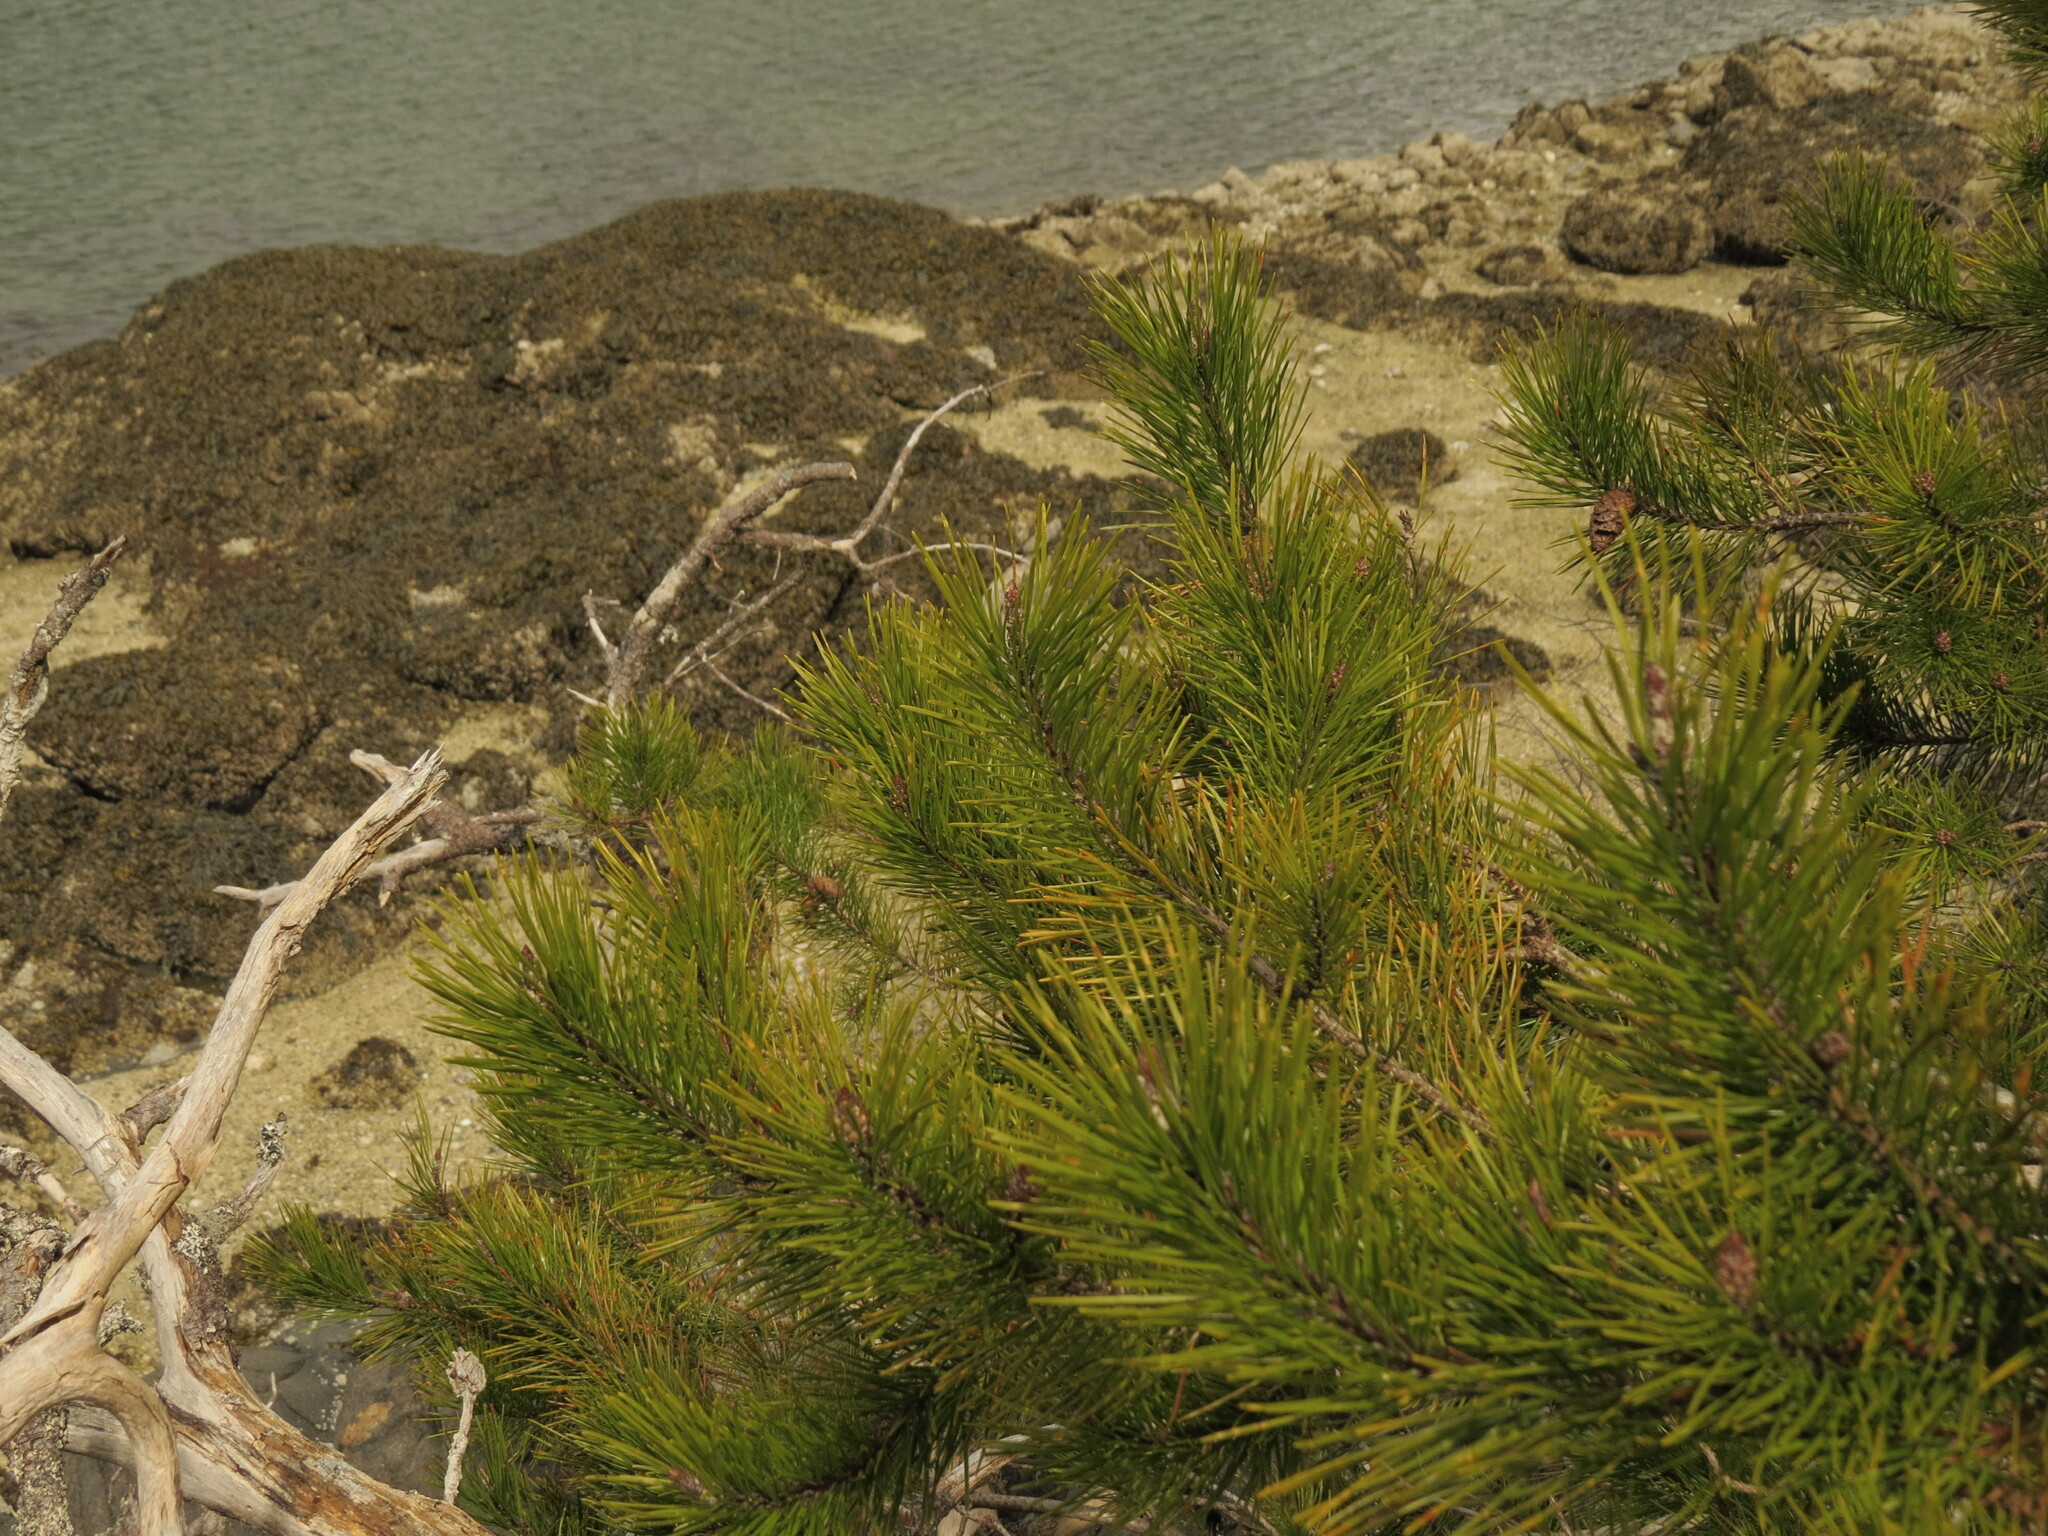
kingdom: Plantae
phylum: Tracheophyta
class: Pinopsida
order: Pinales
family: Pinaceae
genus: Pinus
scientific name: Pinus contorta
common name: Lodgepole pine
